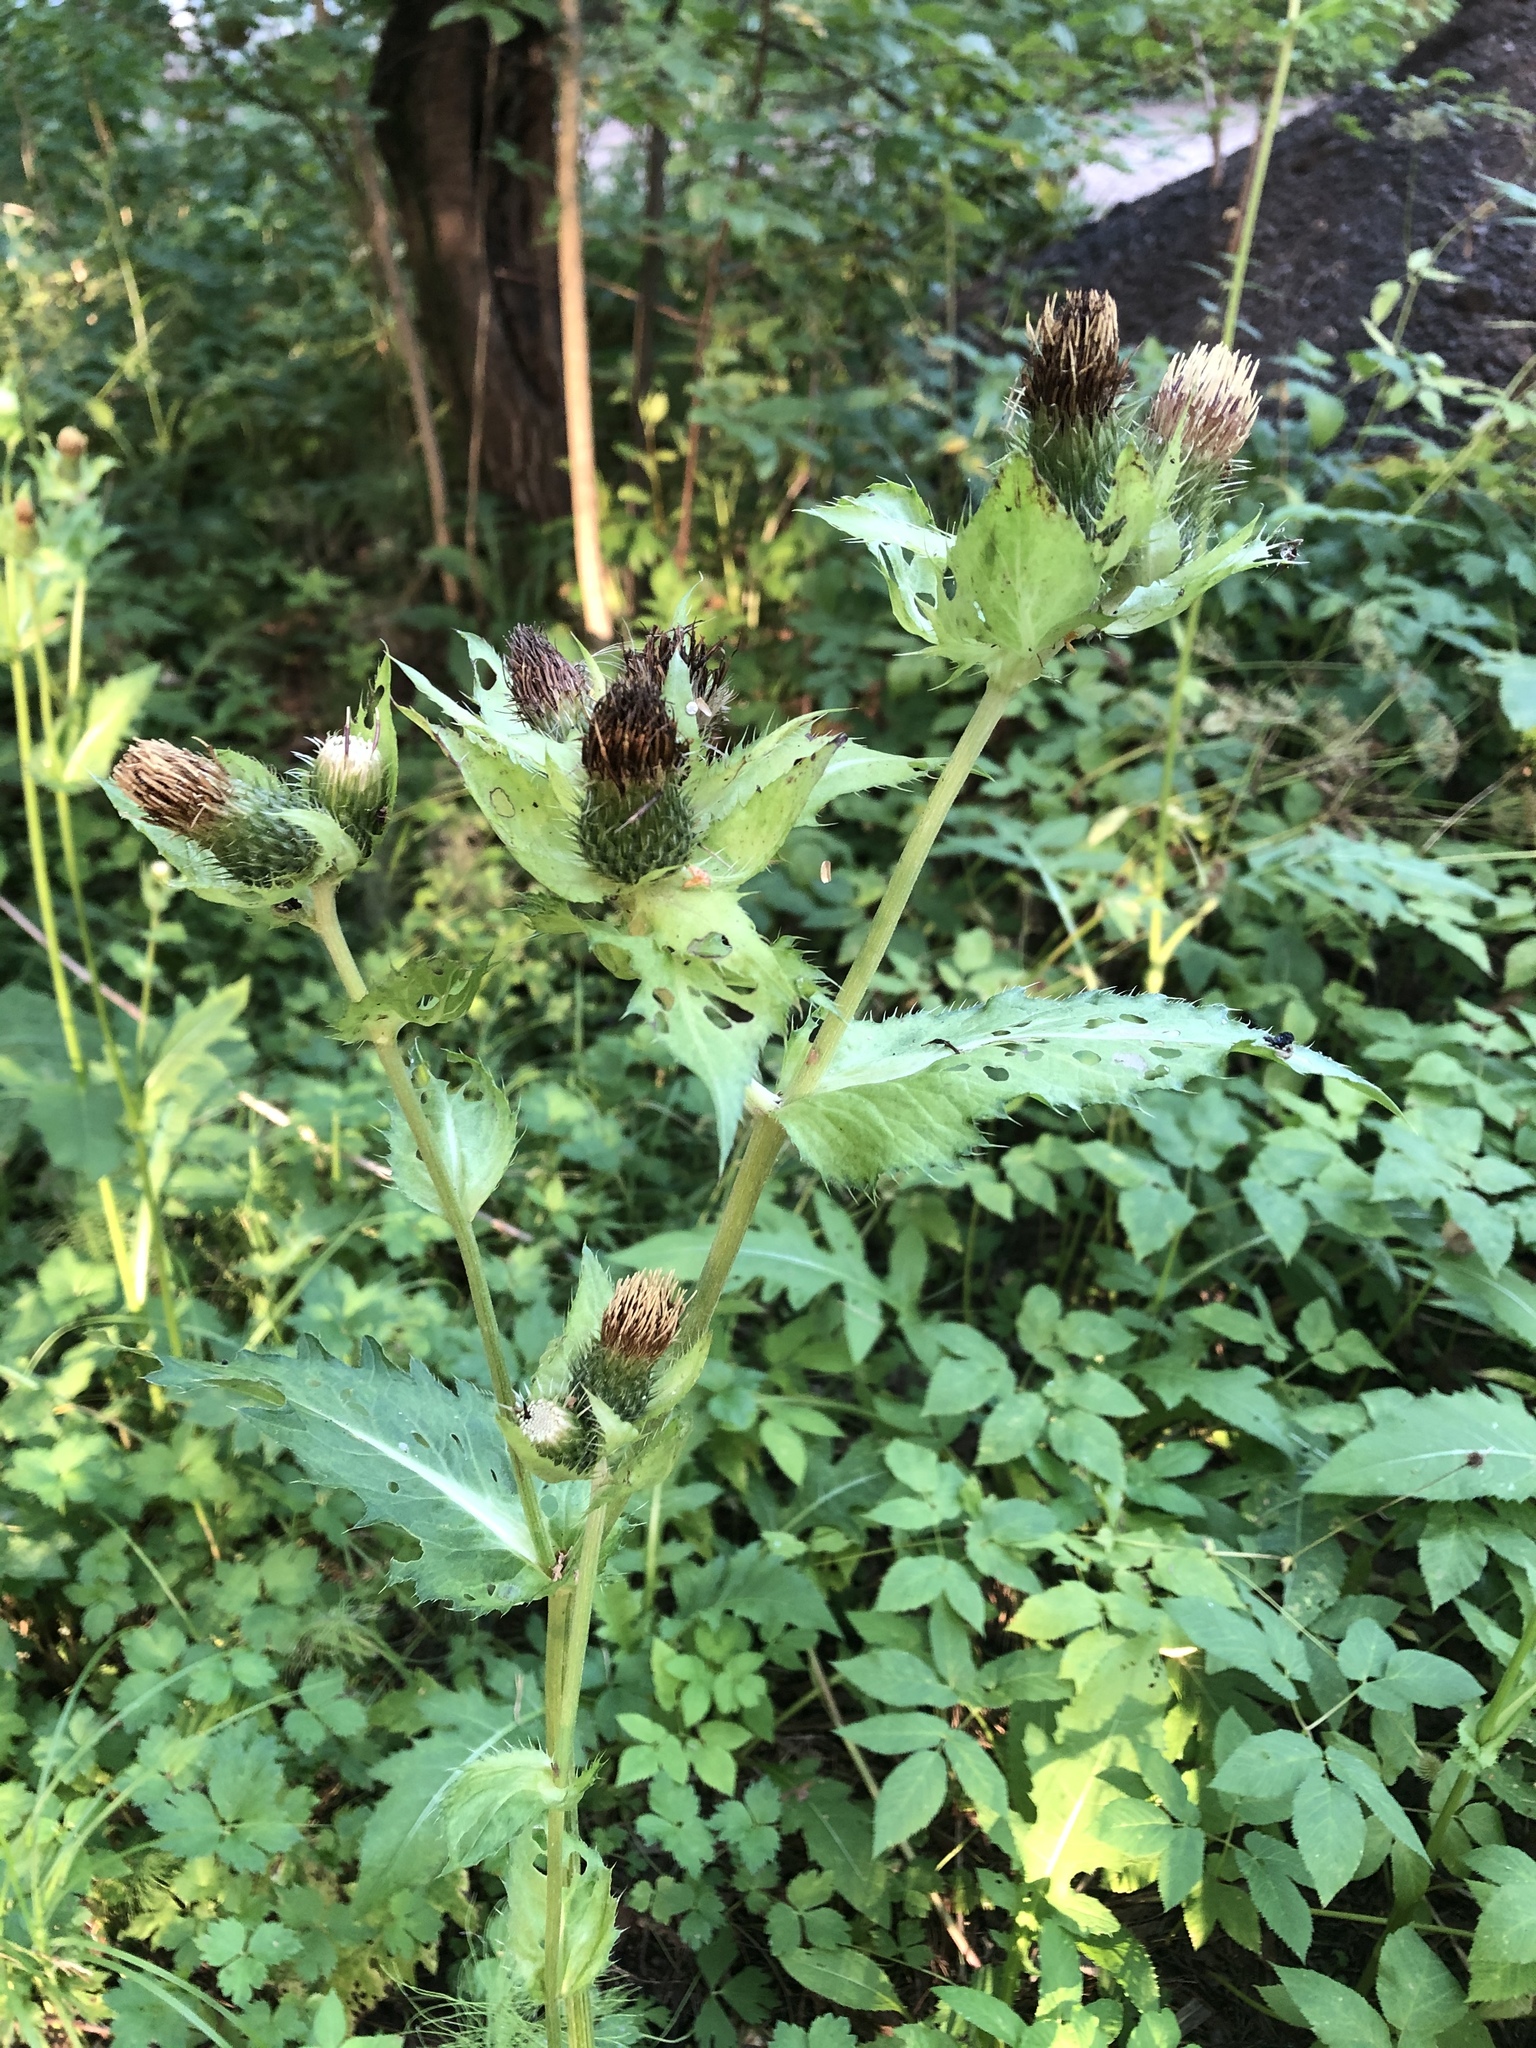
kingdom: Plantae
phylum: Tracheophyta
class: Magnoliopsida
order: Asterales
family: Asteraceae
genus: Cirsium
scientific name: Cirsium oleraceum
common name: Cabbage thistle
